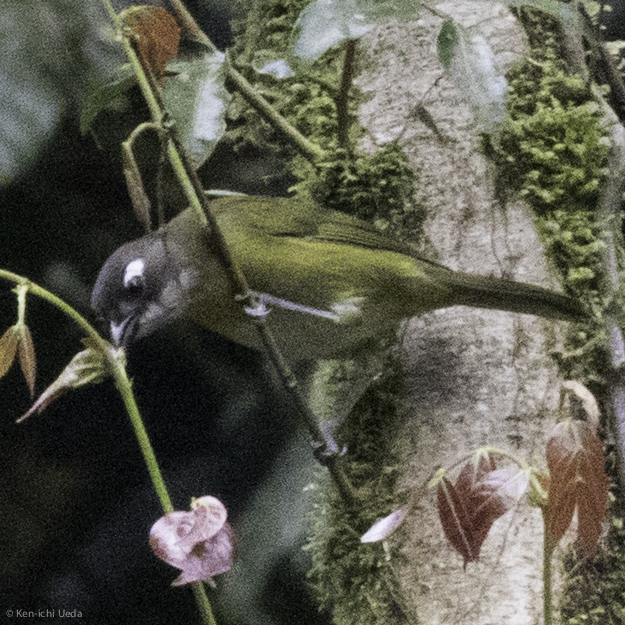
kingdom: Animalia
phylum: Chordata
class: Aves
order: Passeriformes
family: Passerellidae
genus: Chlorospingus
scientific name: Chlorospingus flavopectus
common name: Common chlorospingus
